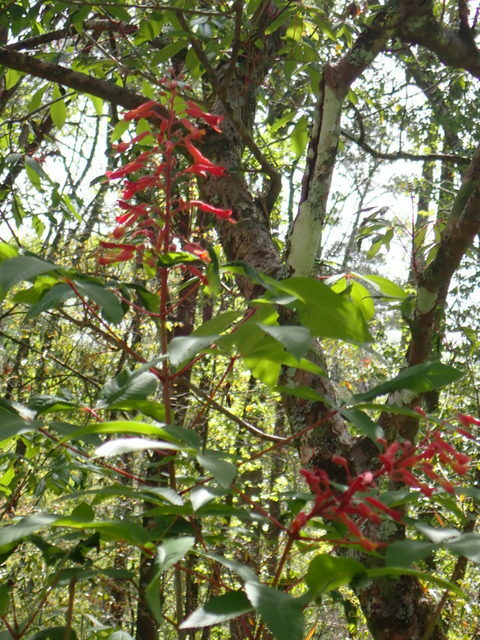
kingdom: Plantae
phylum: Tracheophyta
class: Magnoliopsida
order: Sapindales
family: Sapindaceae
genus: Aesculus
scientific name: Aesculus pavia
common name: Red buckeye
